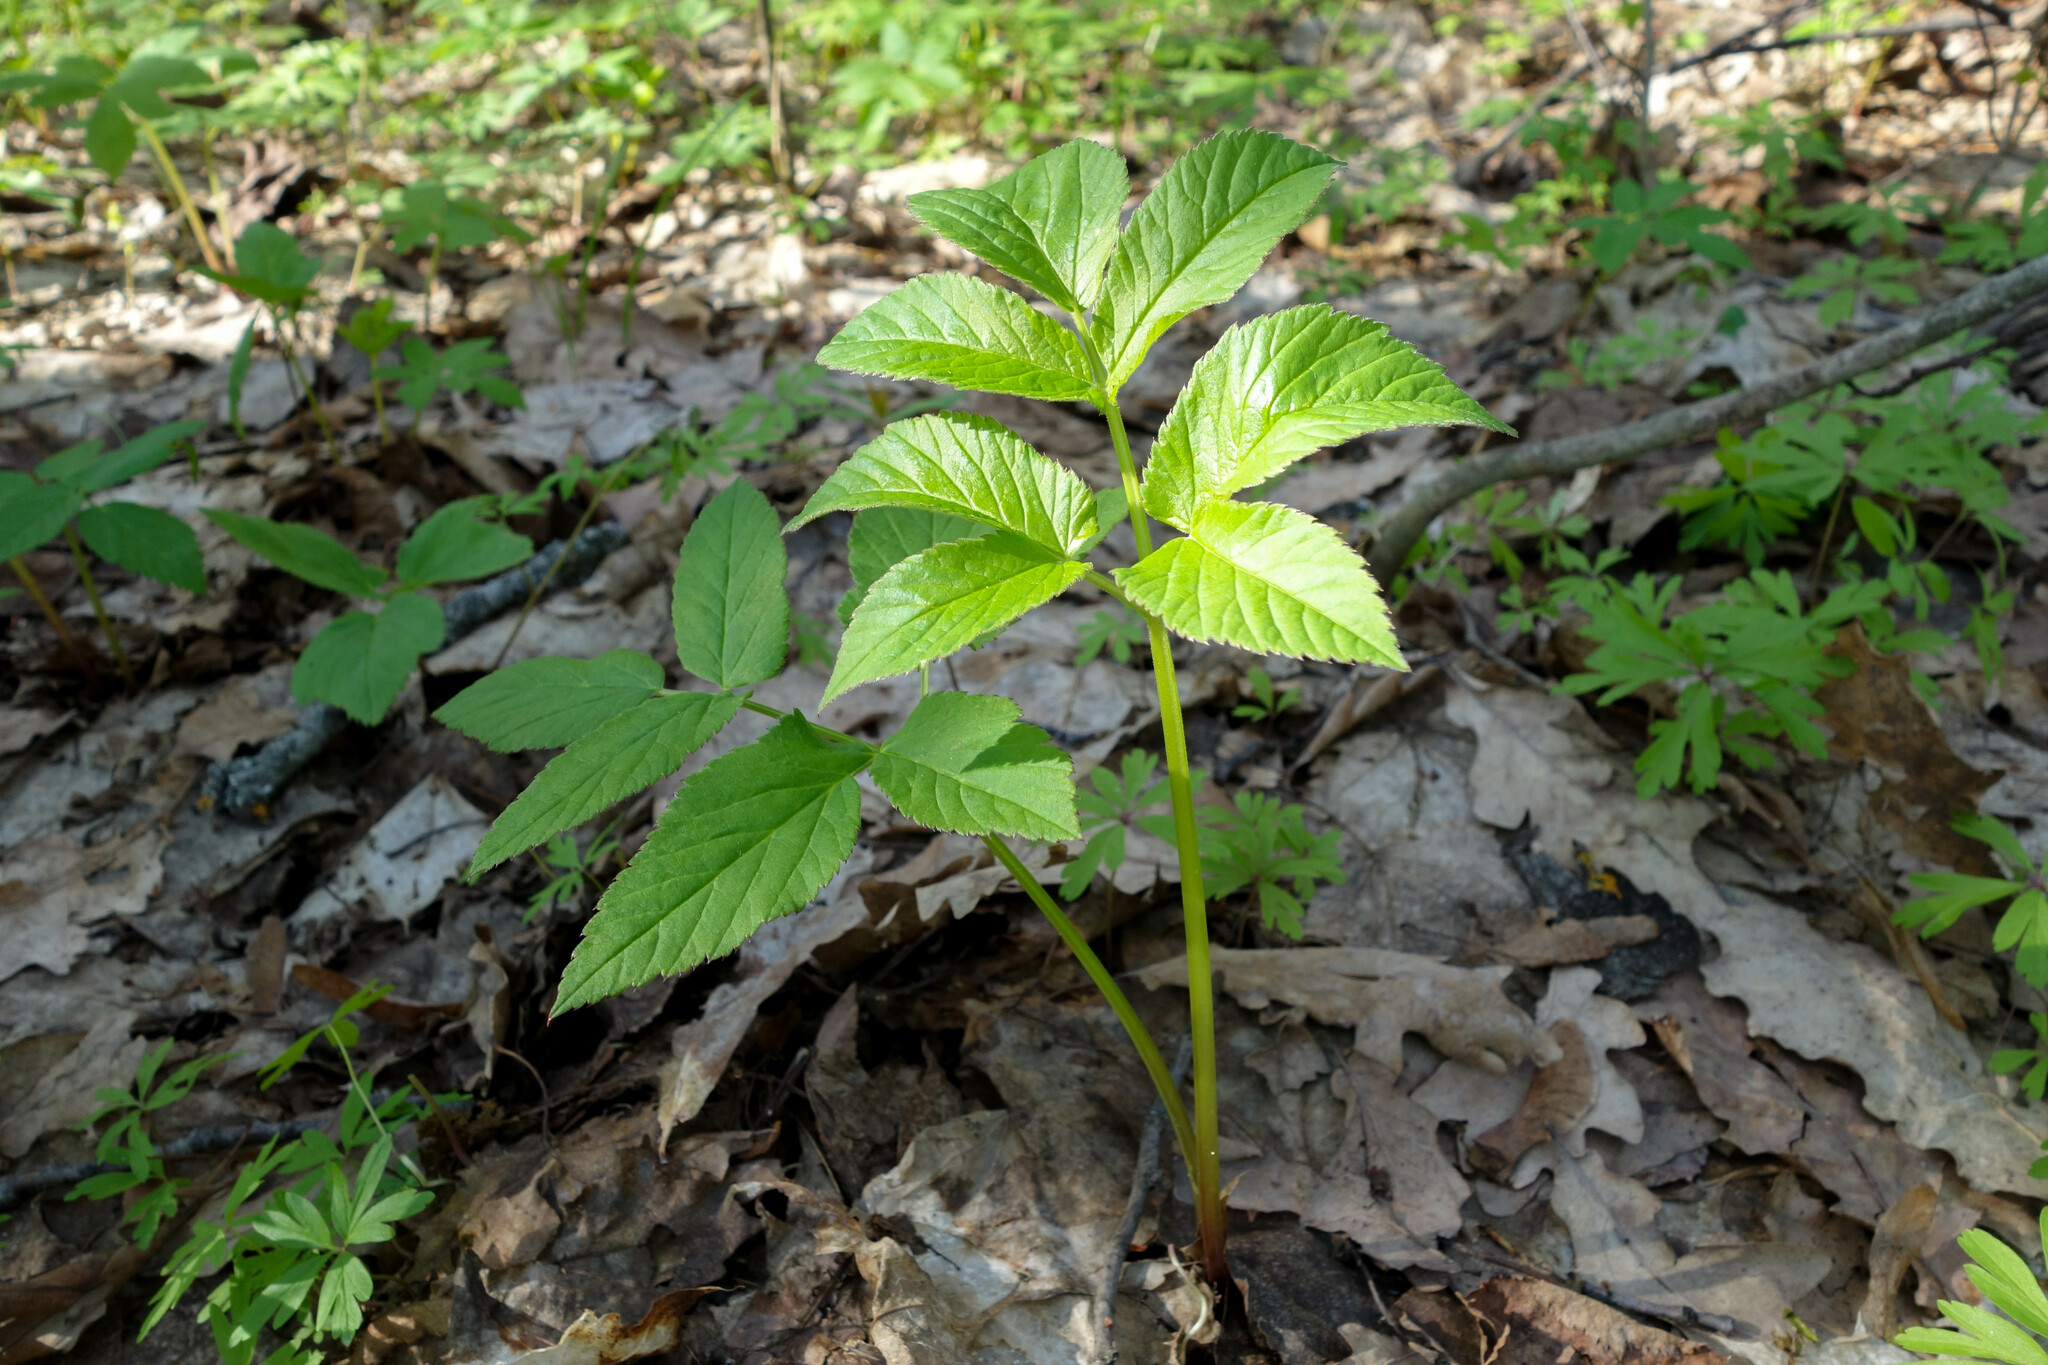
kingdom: Plantae
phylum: Tracheophyta
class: Magnoliopsida
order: Apiales
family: Apiaceae
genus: Aegopodium
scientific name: Aegopodium podagraria
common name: Ground-elder
